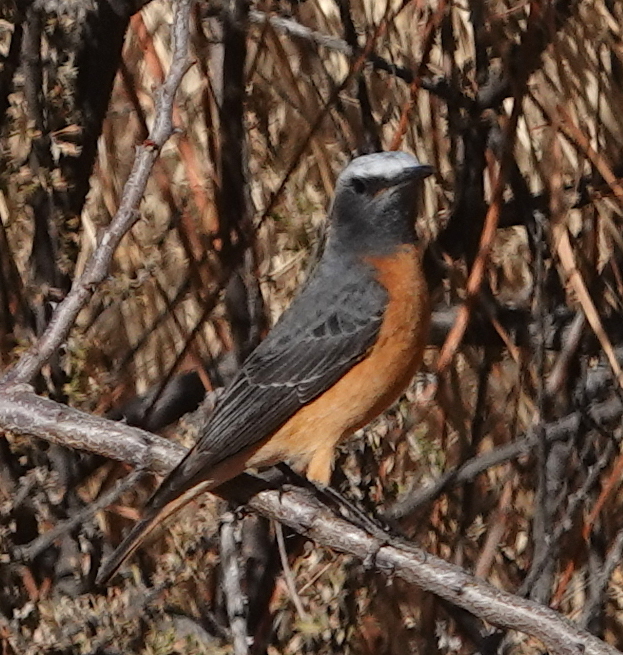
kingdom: Animalia
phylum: Chordata
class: Aves
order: Passeriformes
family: Muscicapidae
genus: Monticola
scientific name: Monticola brevipes
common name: Short-toed rock thrush
